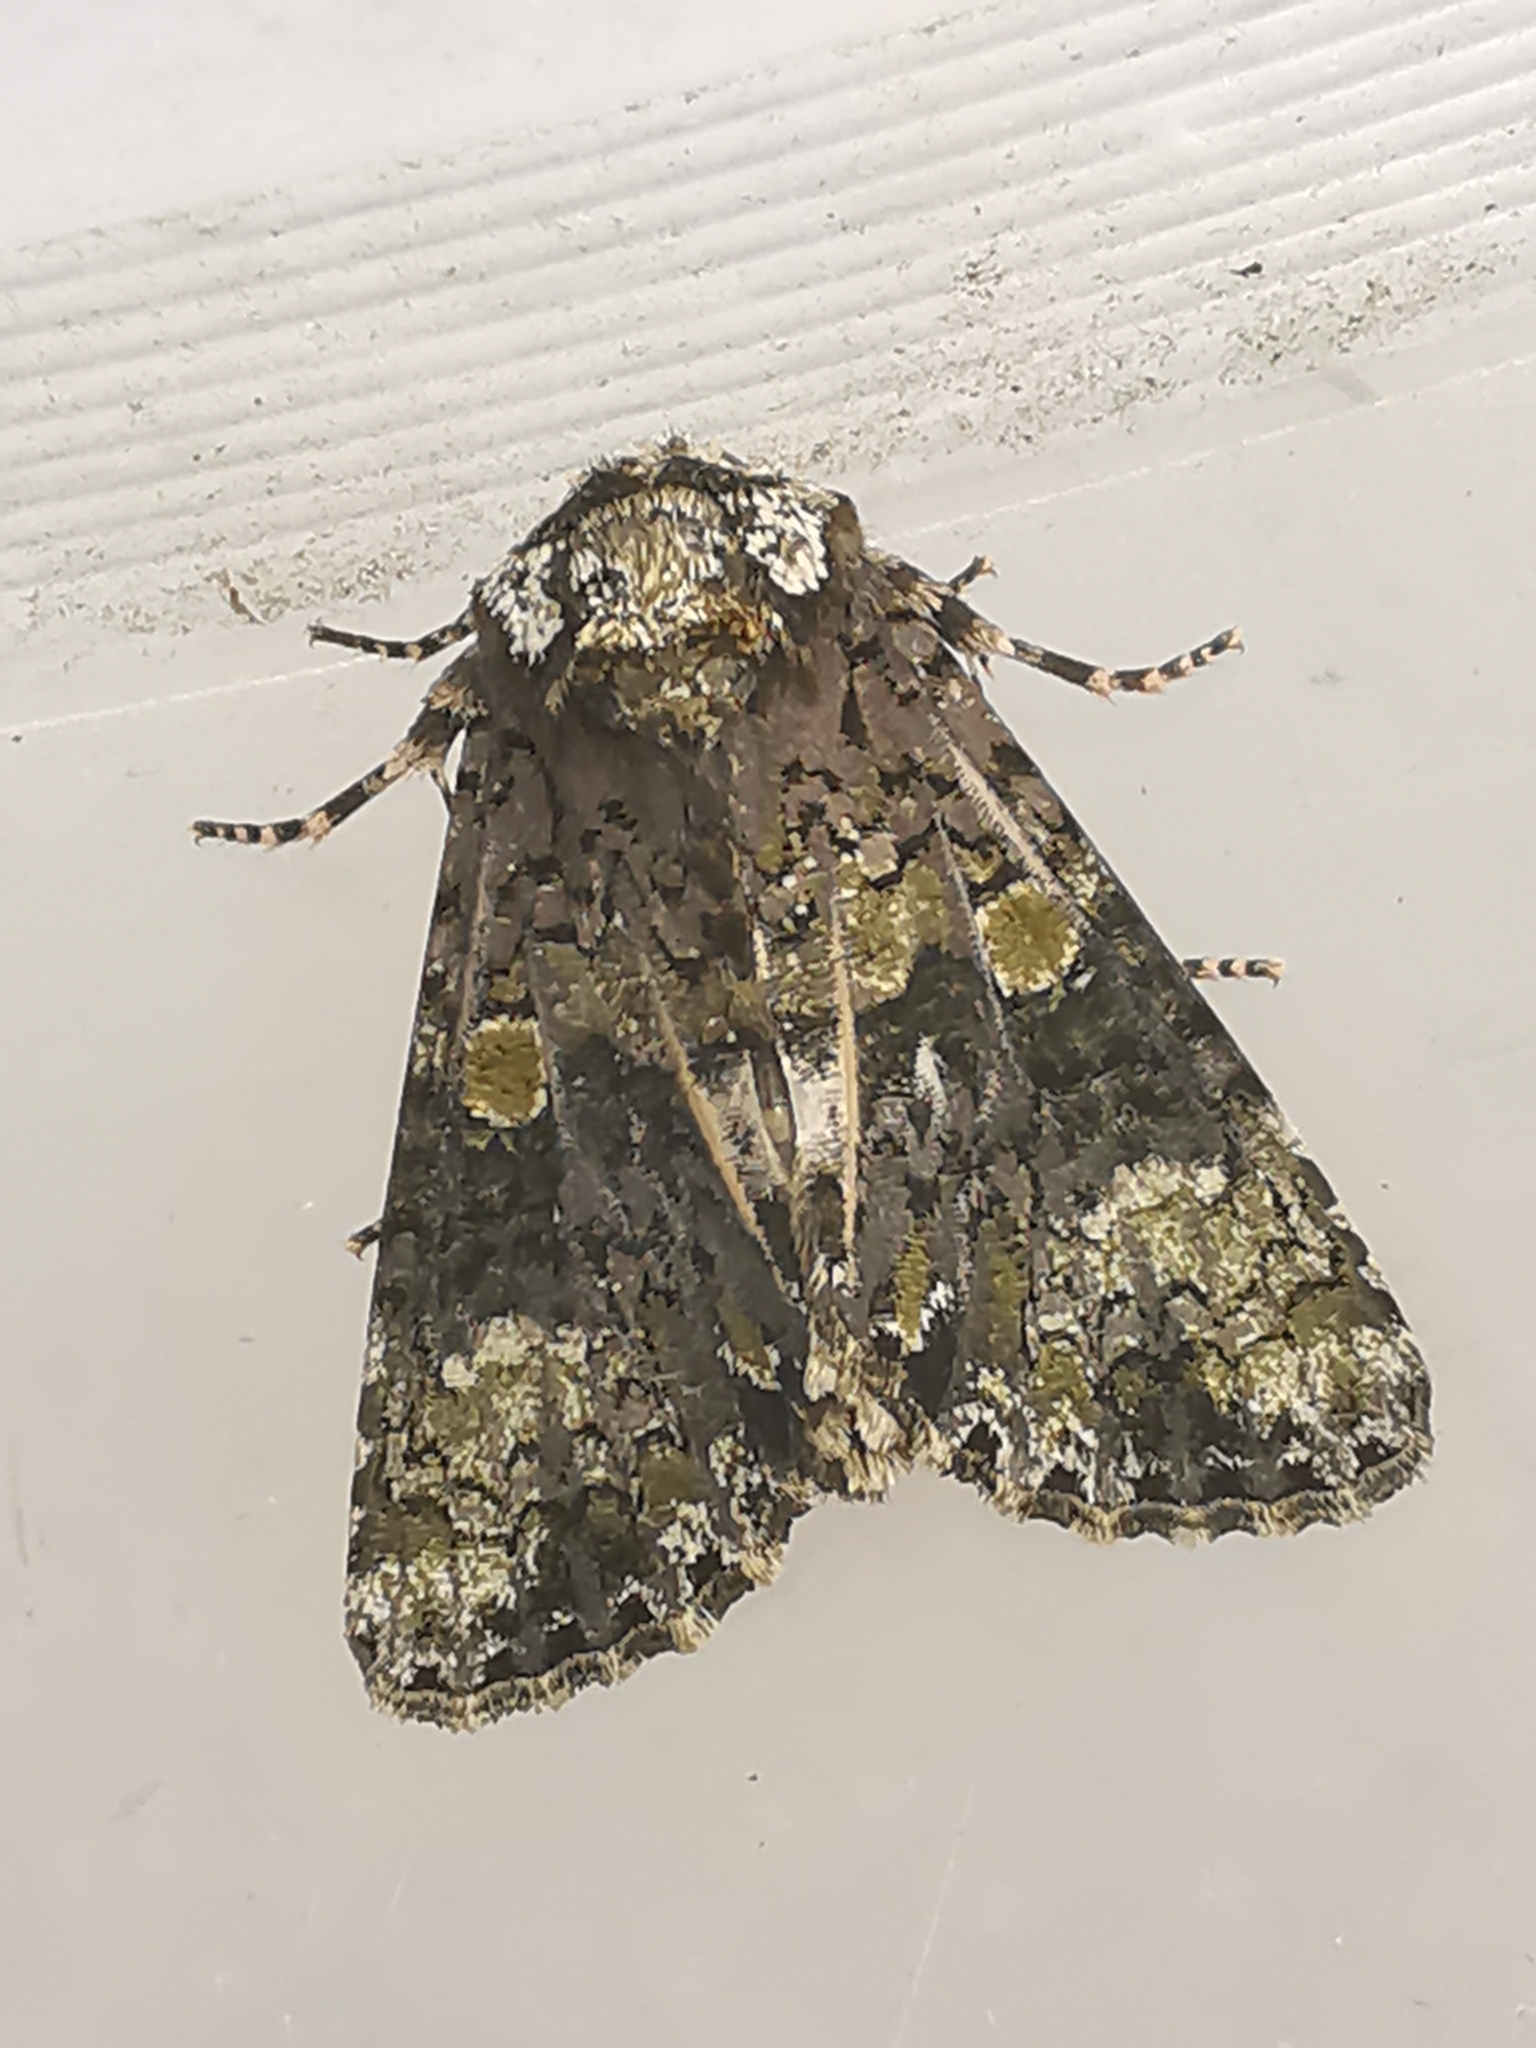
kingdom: Animalia
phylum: Arthropoda
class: Insecta
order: Lepidoptera
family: Noctuidae
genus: Craniophora
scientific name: Craniophora ligustri
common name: Coronet
